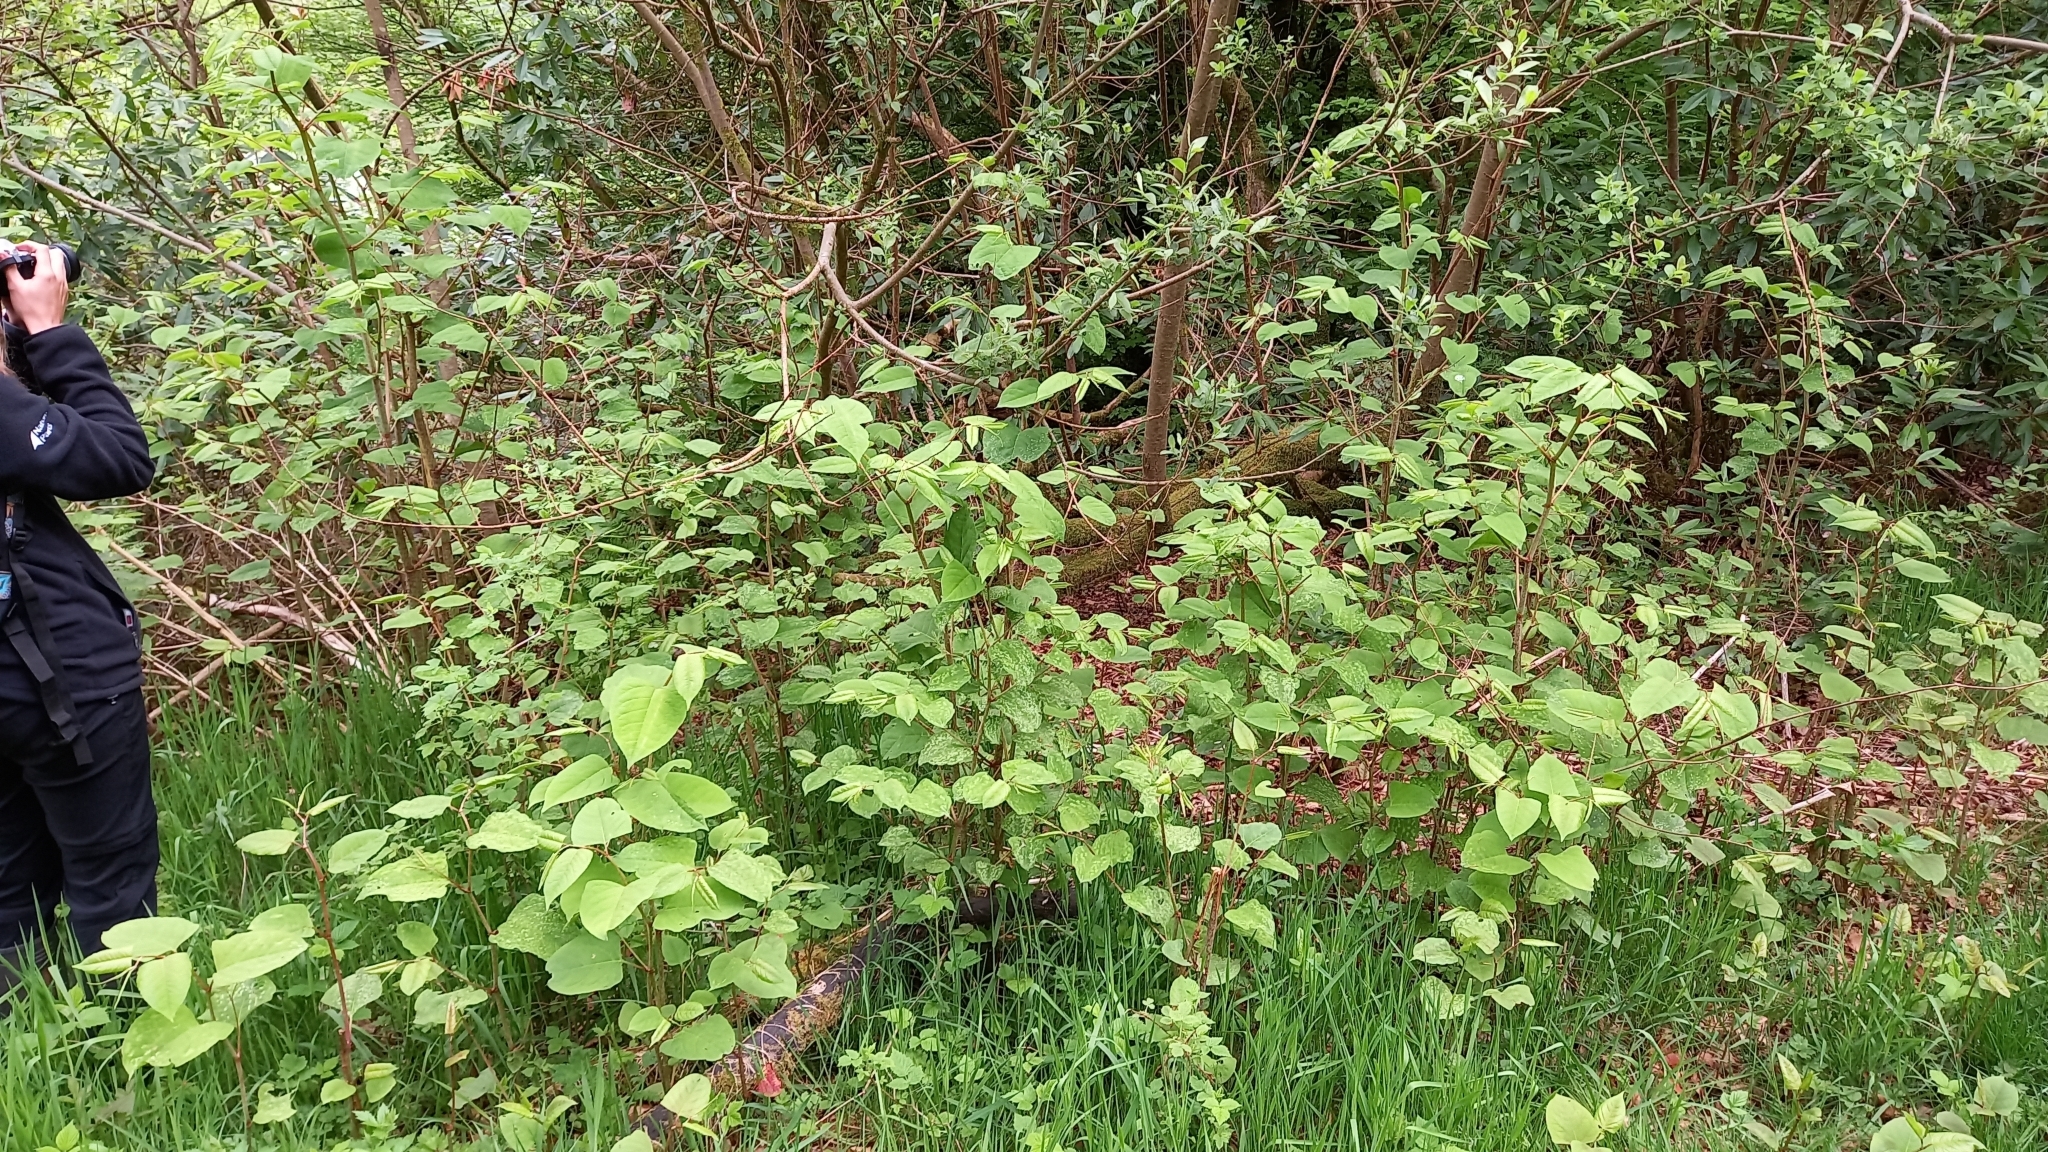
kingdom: Plantae
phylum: Tracheophyta
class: Magnoliopsida
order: Caryophyllales
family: Polygonaceae
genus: Reynoutria
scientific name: Reynoutria japonica
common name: Japanese knotweed
